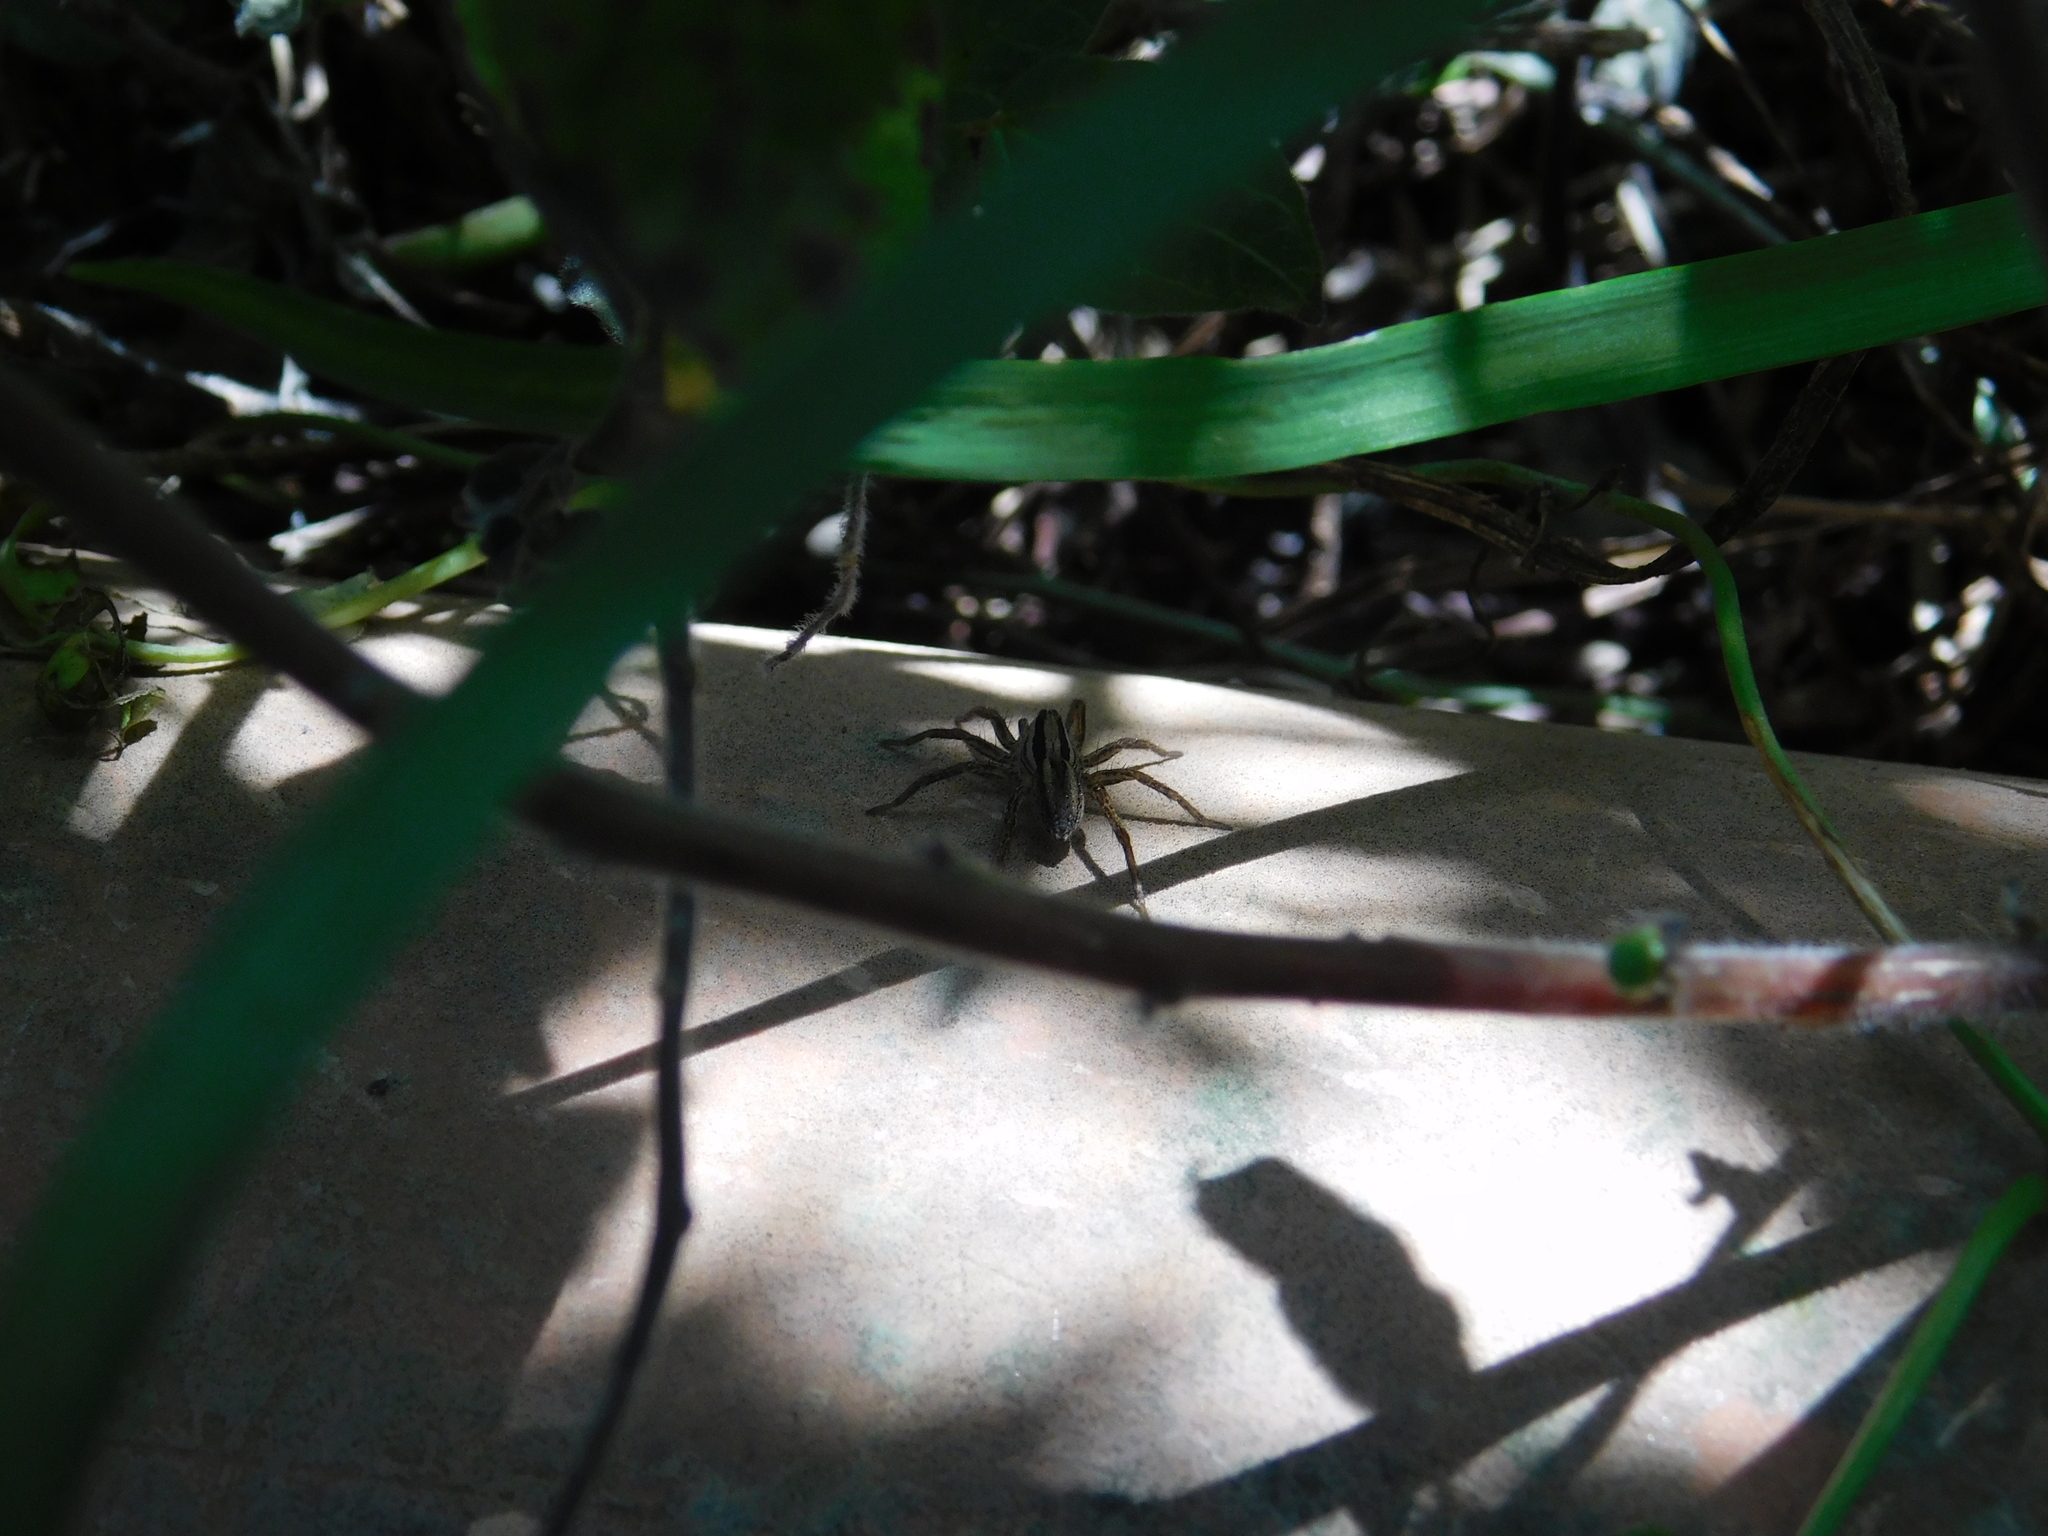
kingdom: Animalia
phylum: Arthropoda
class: Arachnida
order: Araneae
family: Lycosidae
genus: Hogna
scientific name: Hogna bivittata
